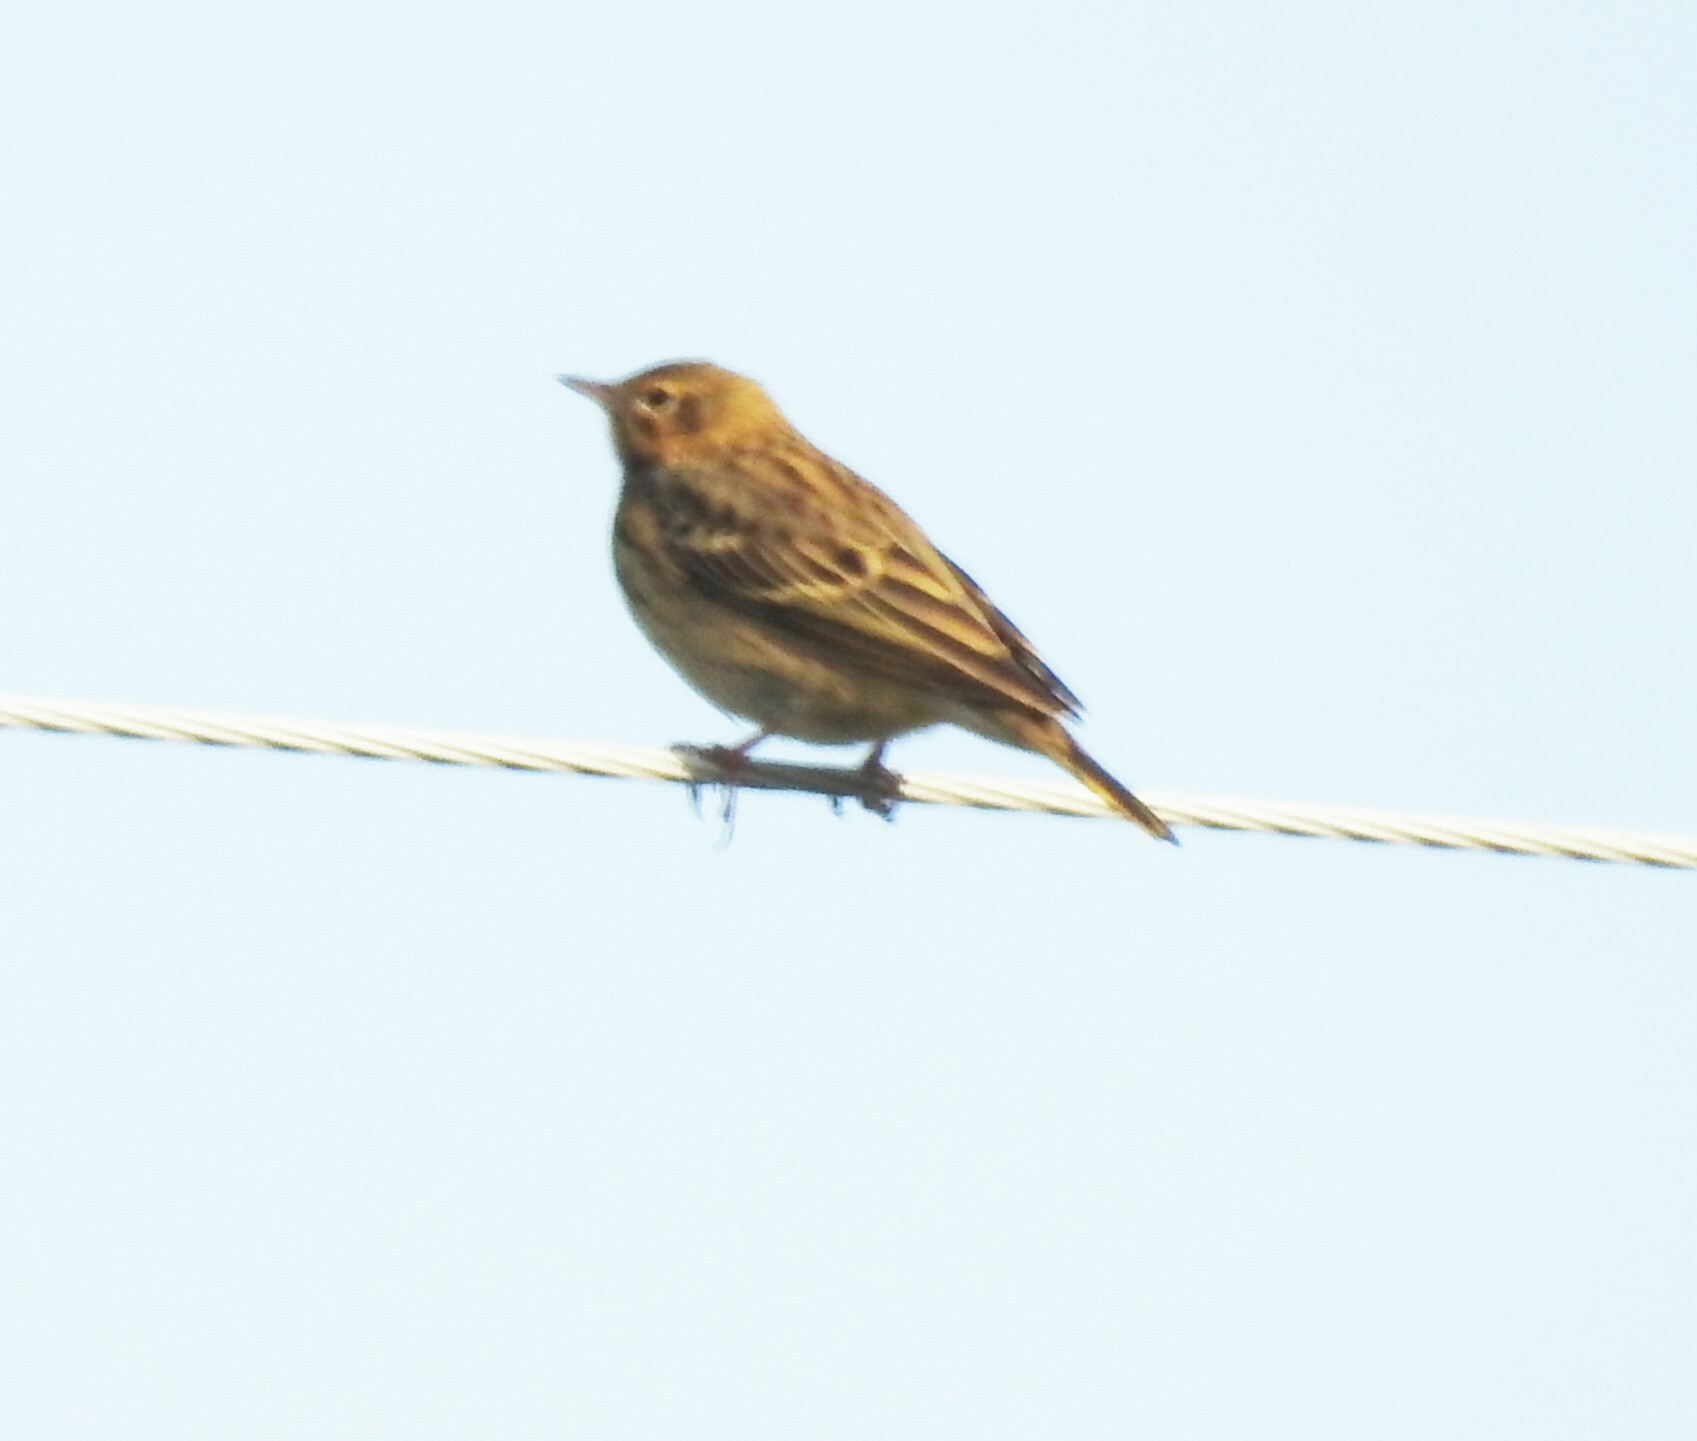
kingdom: Animalia
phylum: Chordata
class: Aves
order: Passeriformes
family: Motacillidae
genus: Anthus
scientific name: Anthus trivialis
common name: Tree pipit
